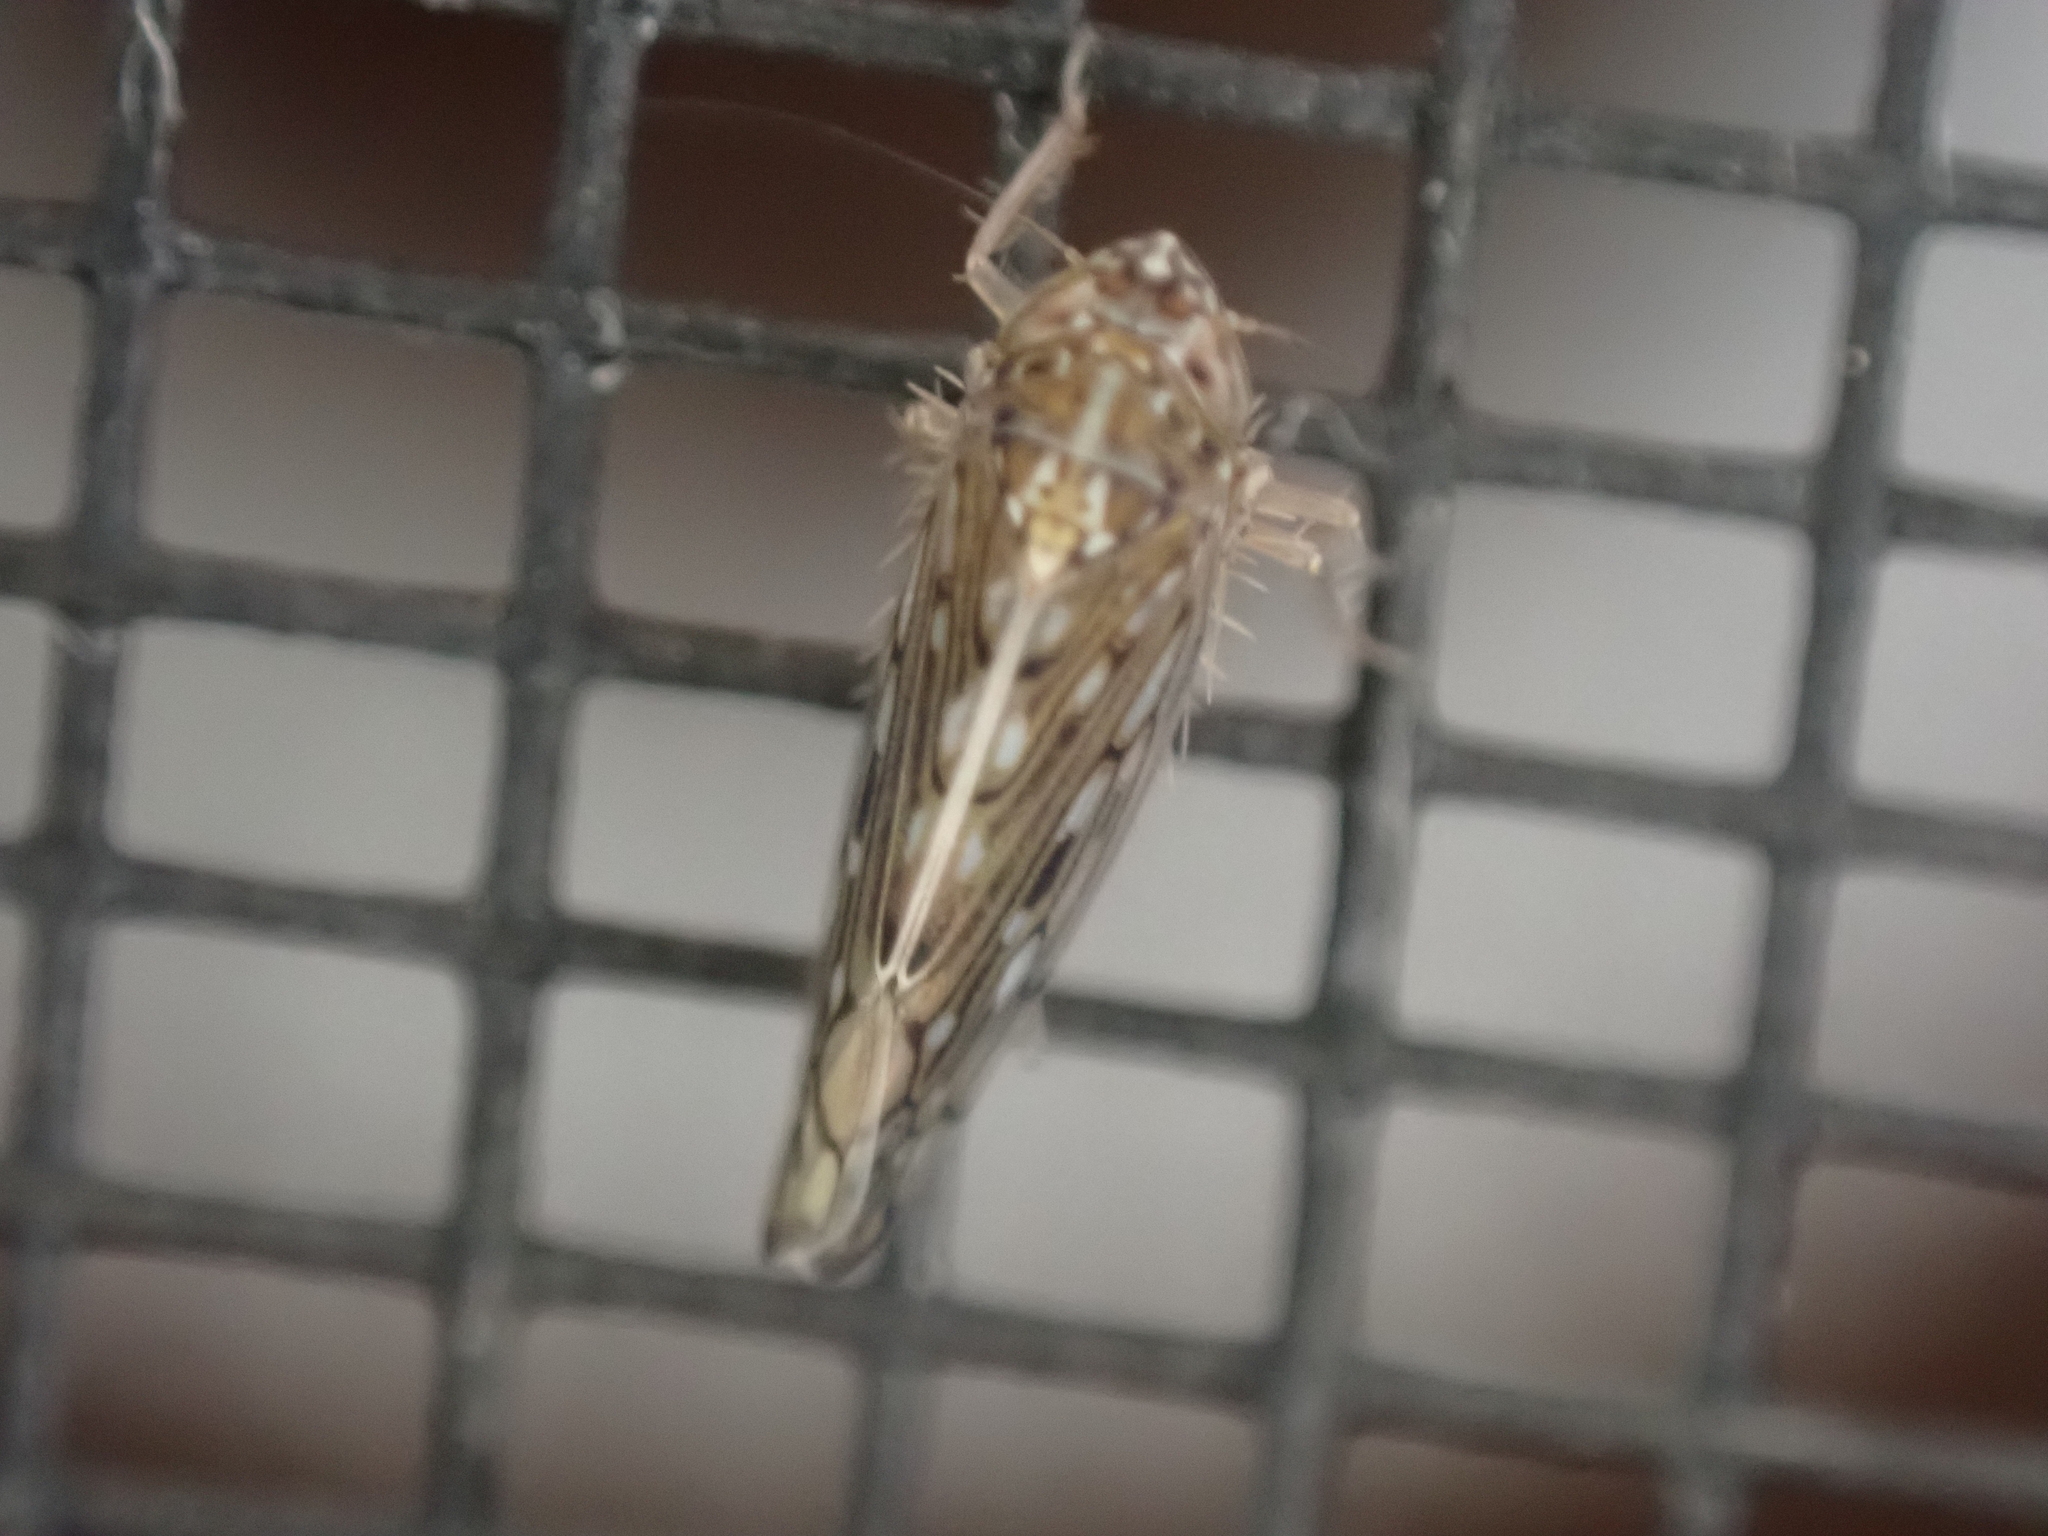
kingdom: Animalia
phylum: Arthropoda
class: Insecta
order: Hemiptera
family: Cicadellidae
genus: Osbornellus
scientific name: Osbornellus clarus
